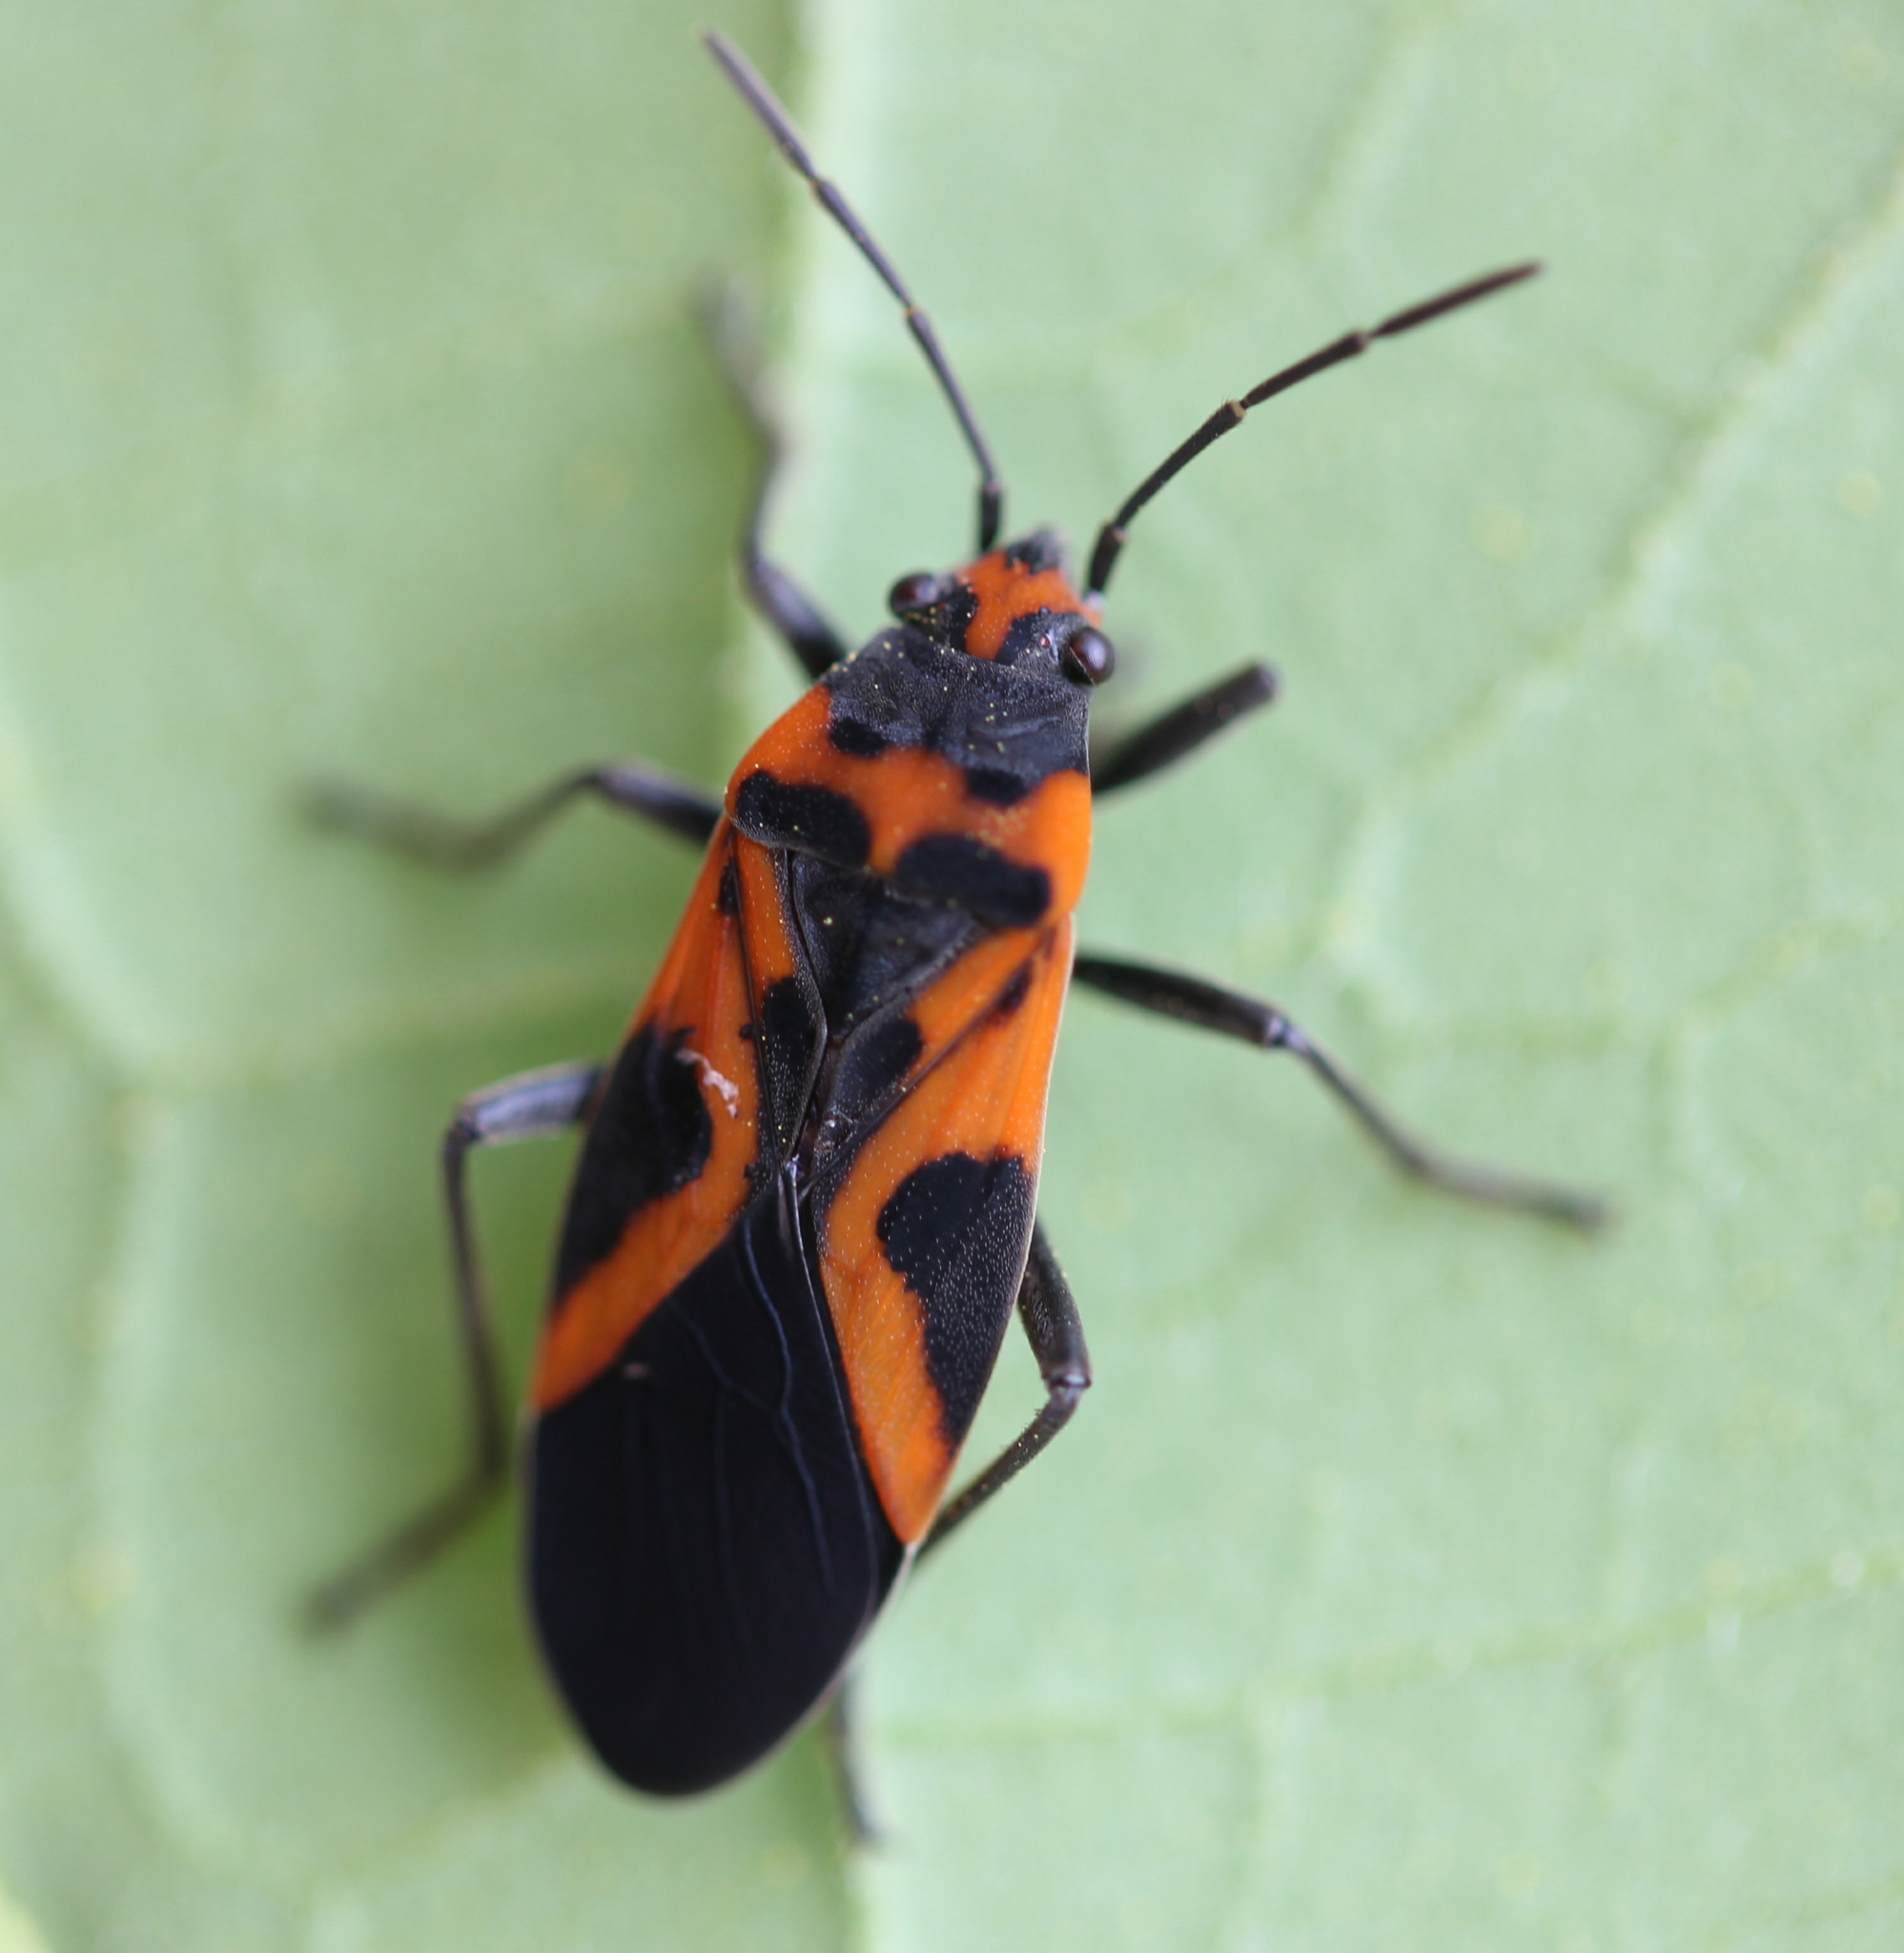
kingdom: Animalia
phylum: Arthropoda
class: Insecta
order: Hemiptera
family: Lygaeidae
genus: Lygaeus
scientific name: Lygaeus turcicus
